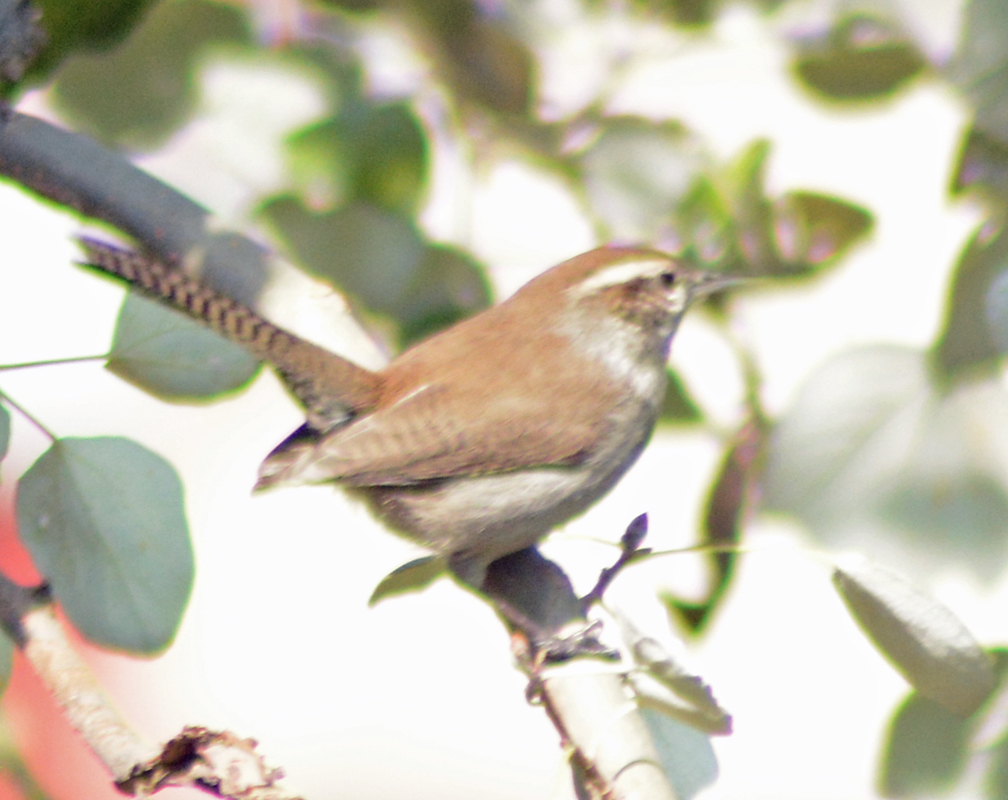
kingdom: Animalia
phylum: Chordata
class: Aves
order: Passeriformes
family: Troglodytidae
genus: Thryomanes
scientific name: Thryomanes bewickii
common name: Bewick's wren
